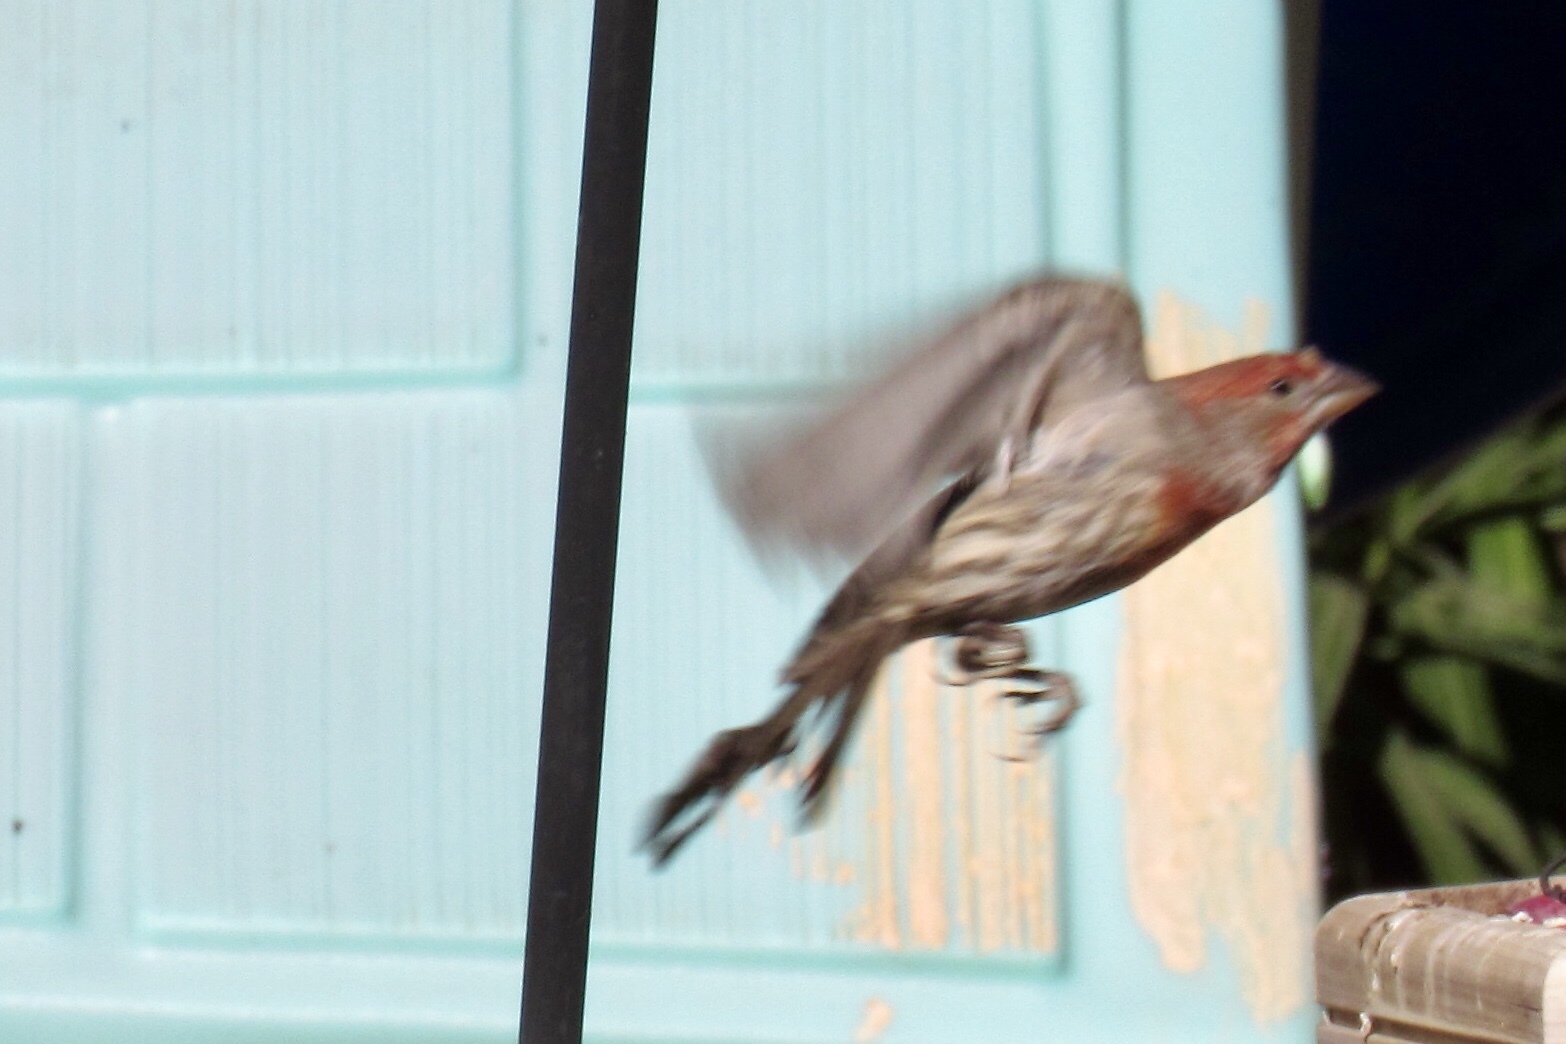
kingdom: Animalia
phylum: Chordata
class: Aves
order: Passeriformes
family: Fringillidae
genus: Haemorhous
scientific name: Haemorhous mexicanus
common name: House finch
